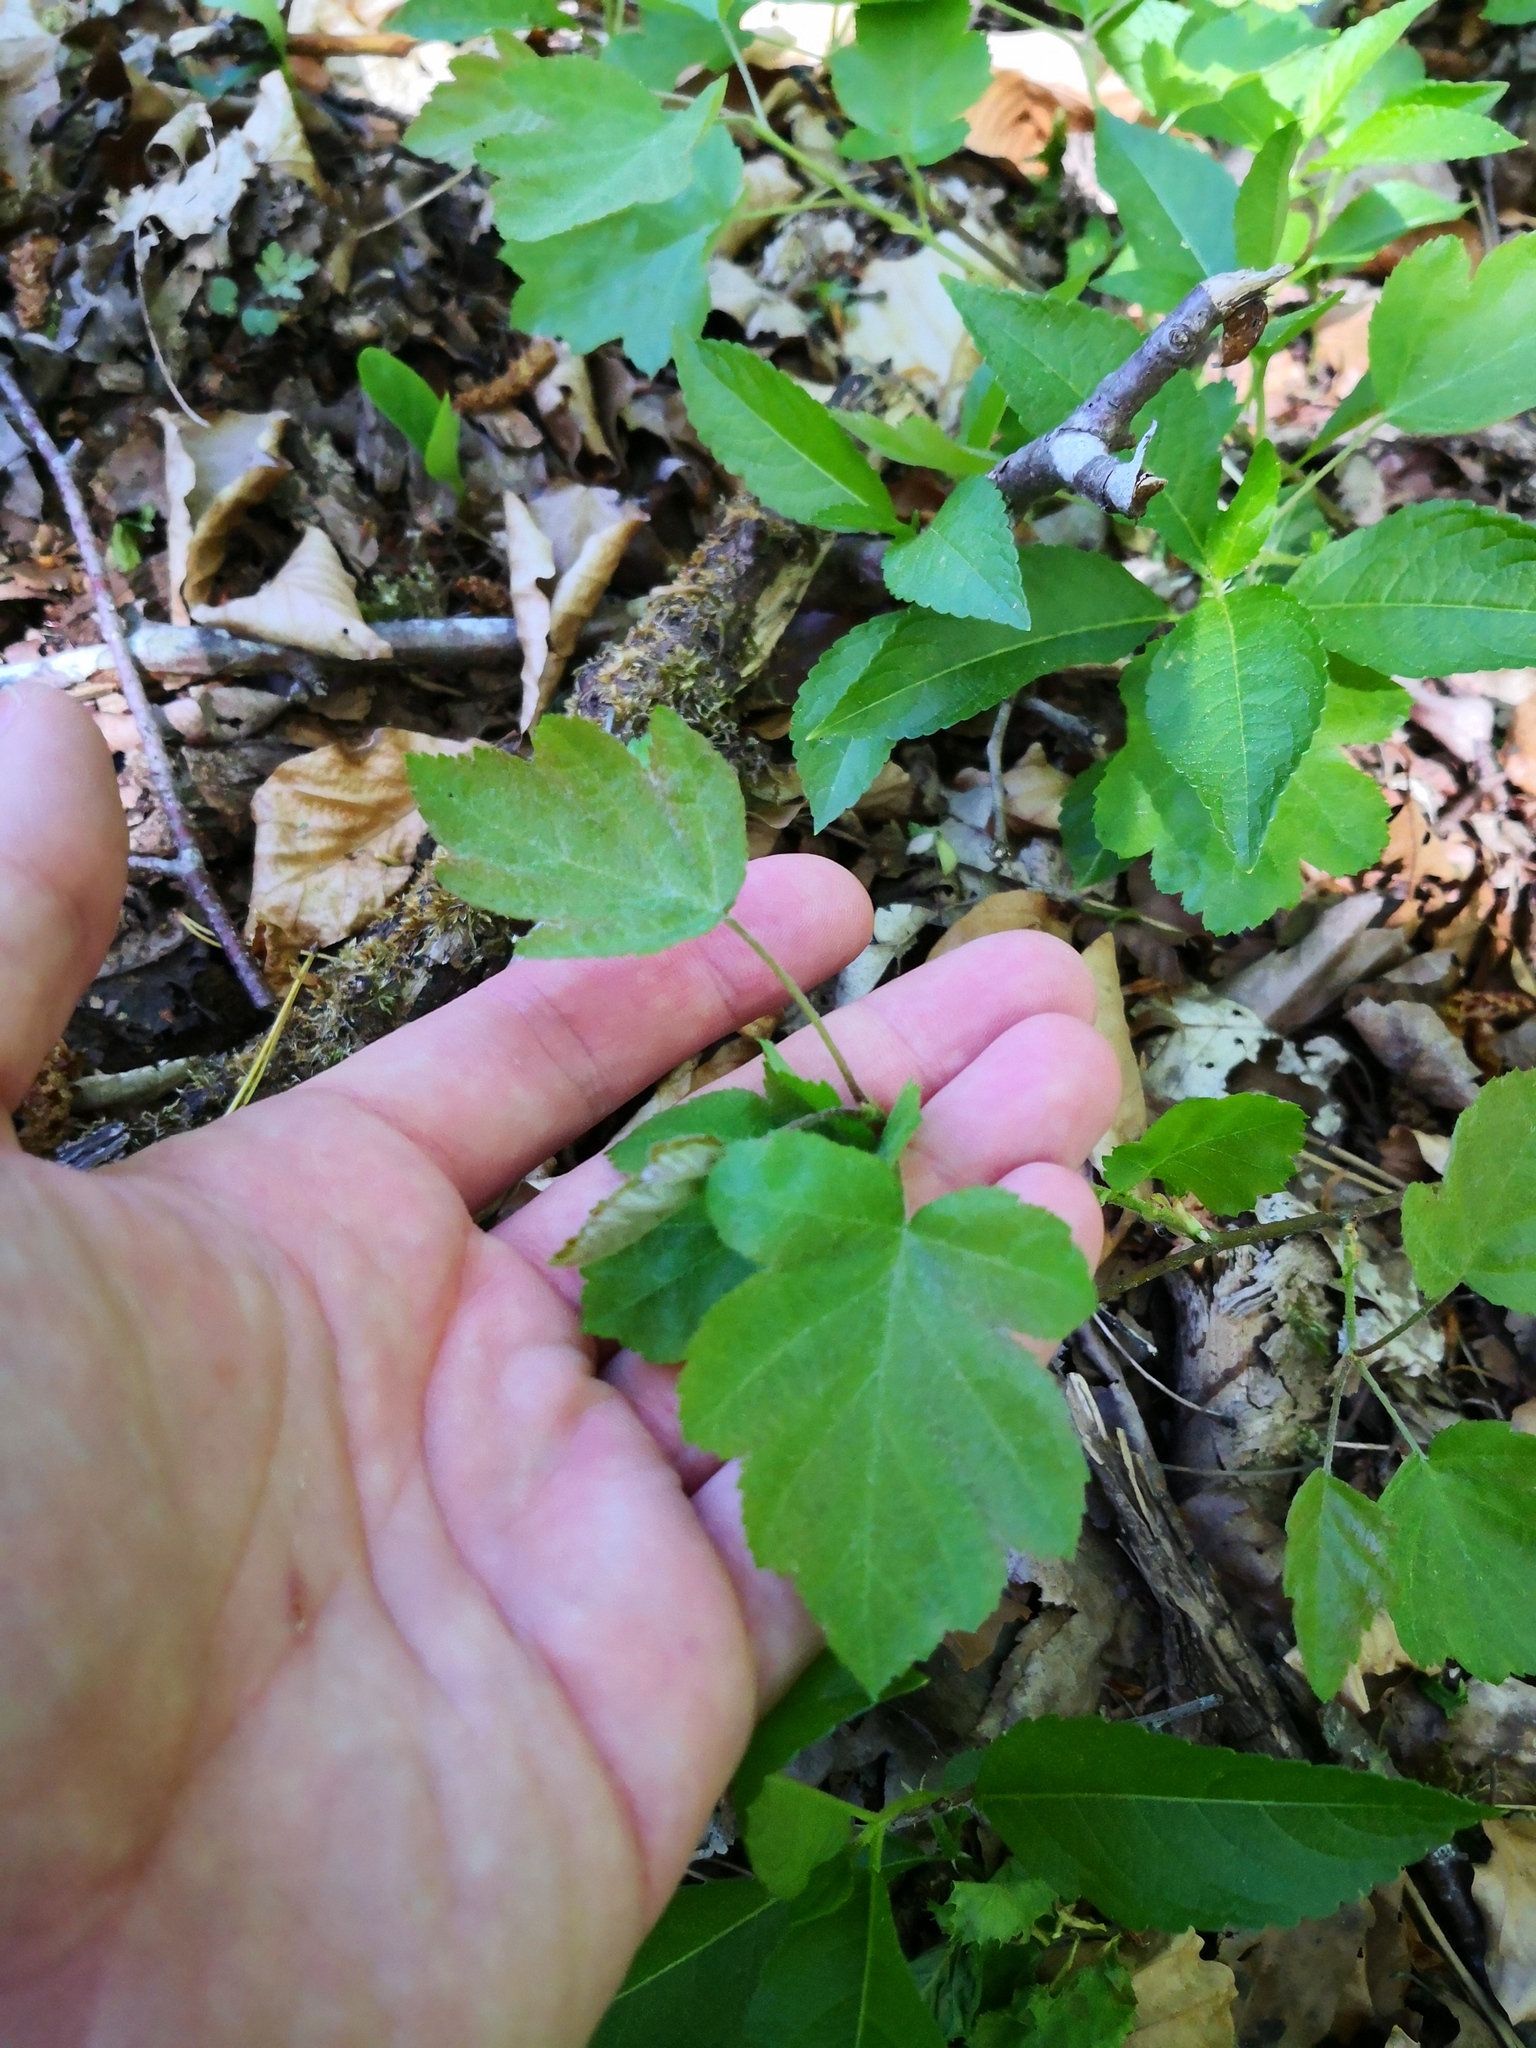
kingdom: Plantae
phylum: Tracheophyta
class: Magnoliopsida
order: Rosales
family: Rosaceae
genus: Torminalis
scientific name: Torminalis glaberrima
